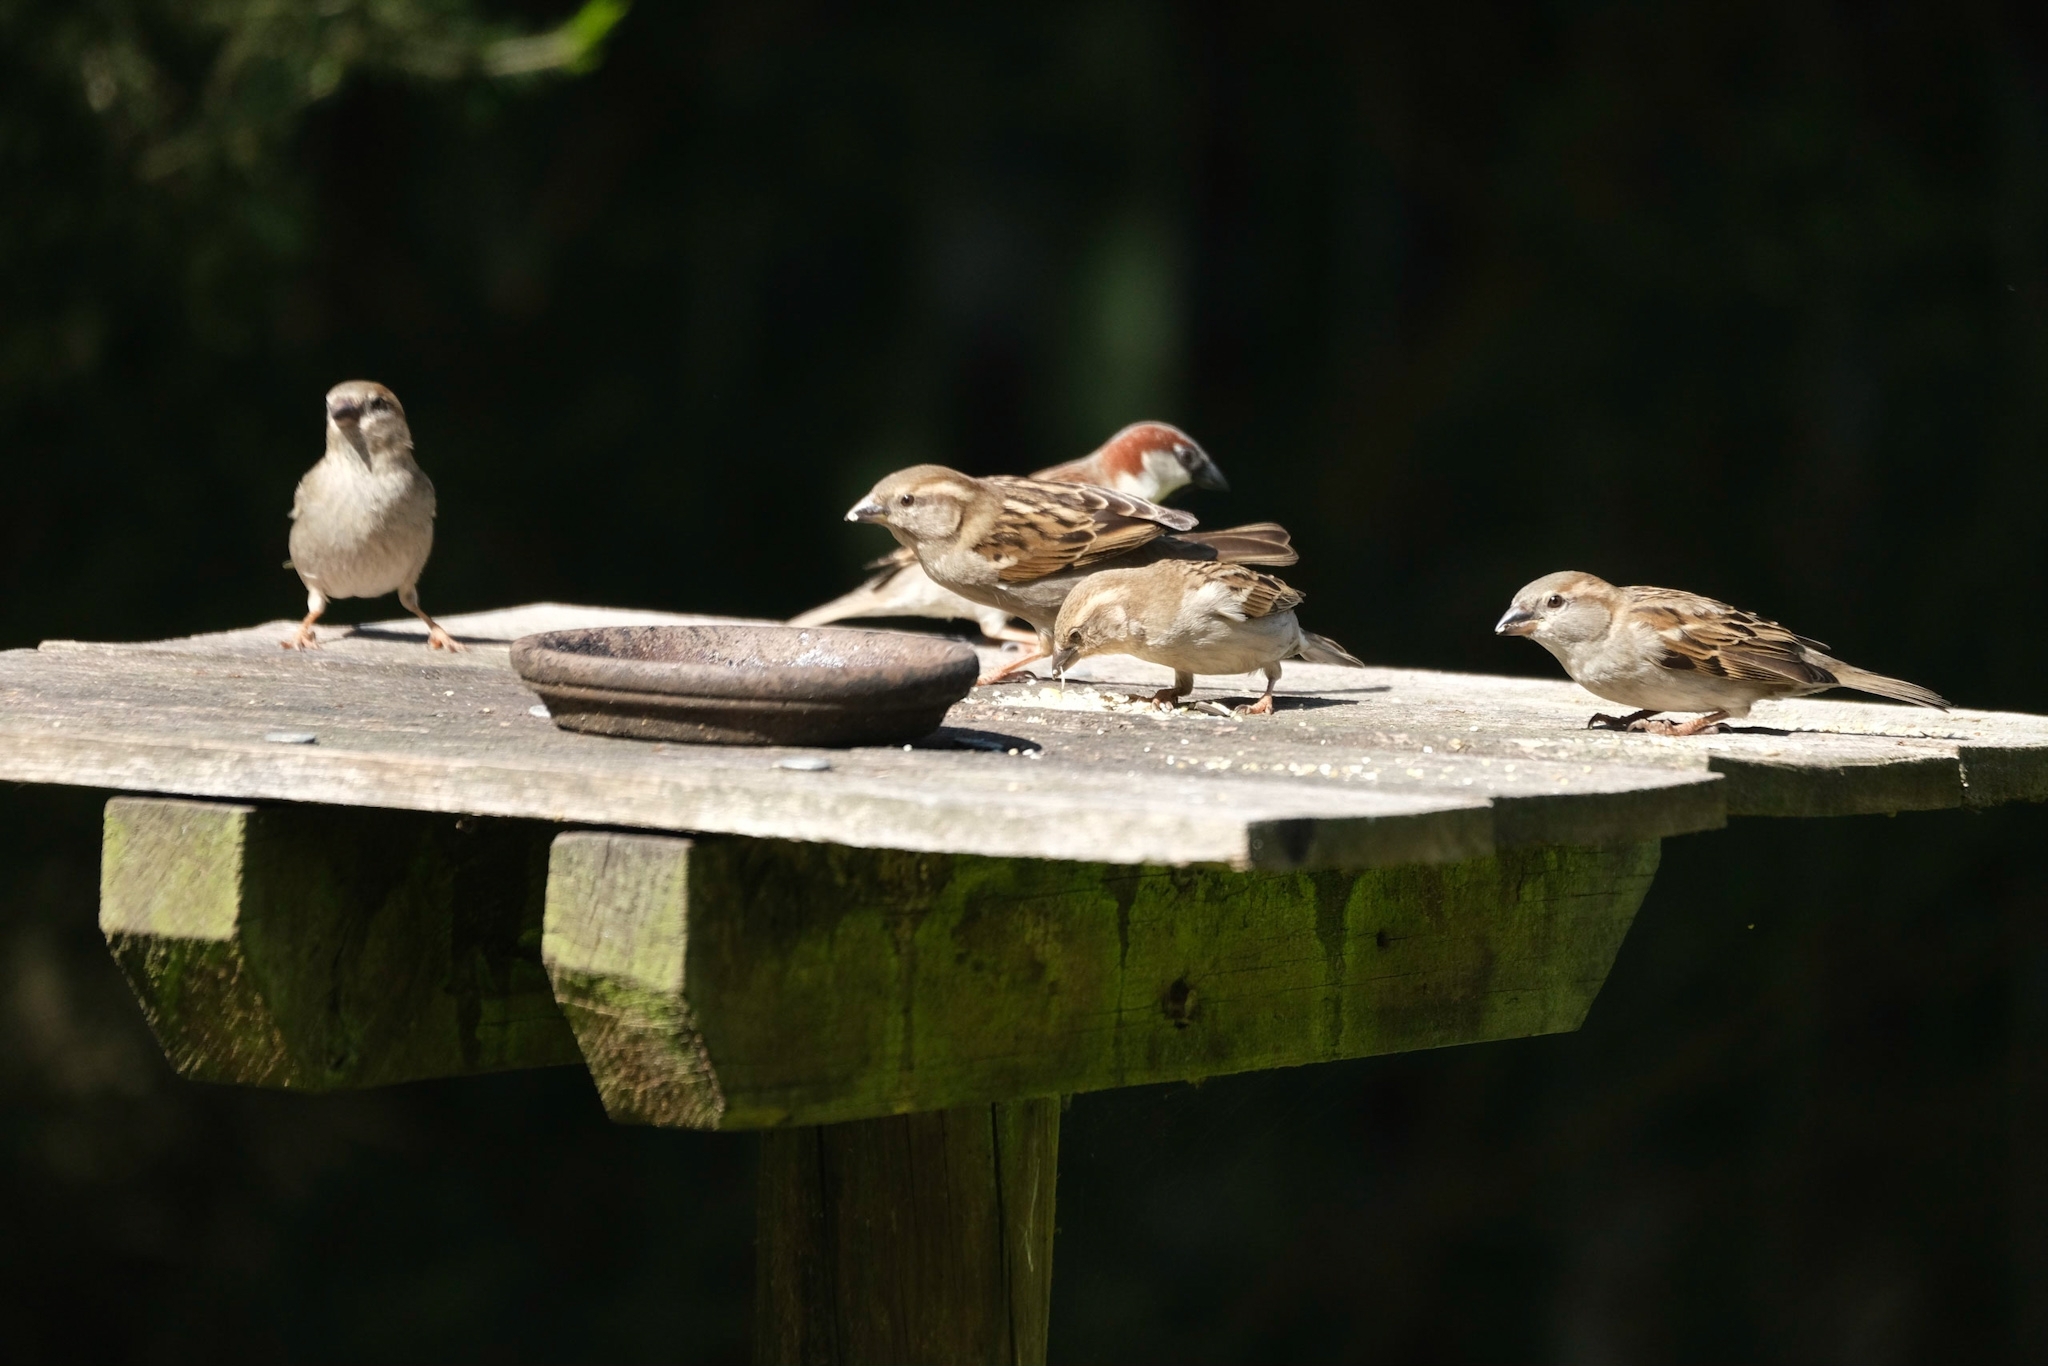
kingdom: Animalia
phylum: Chordata
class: Aves
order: Passeriformes
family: Passeridae
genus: Passer
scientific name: Passer domesticus
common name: House sparrow
